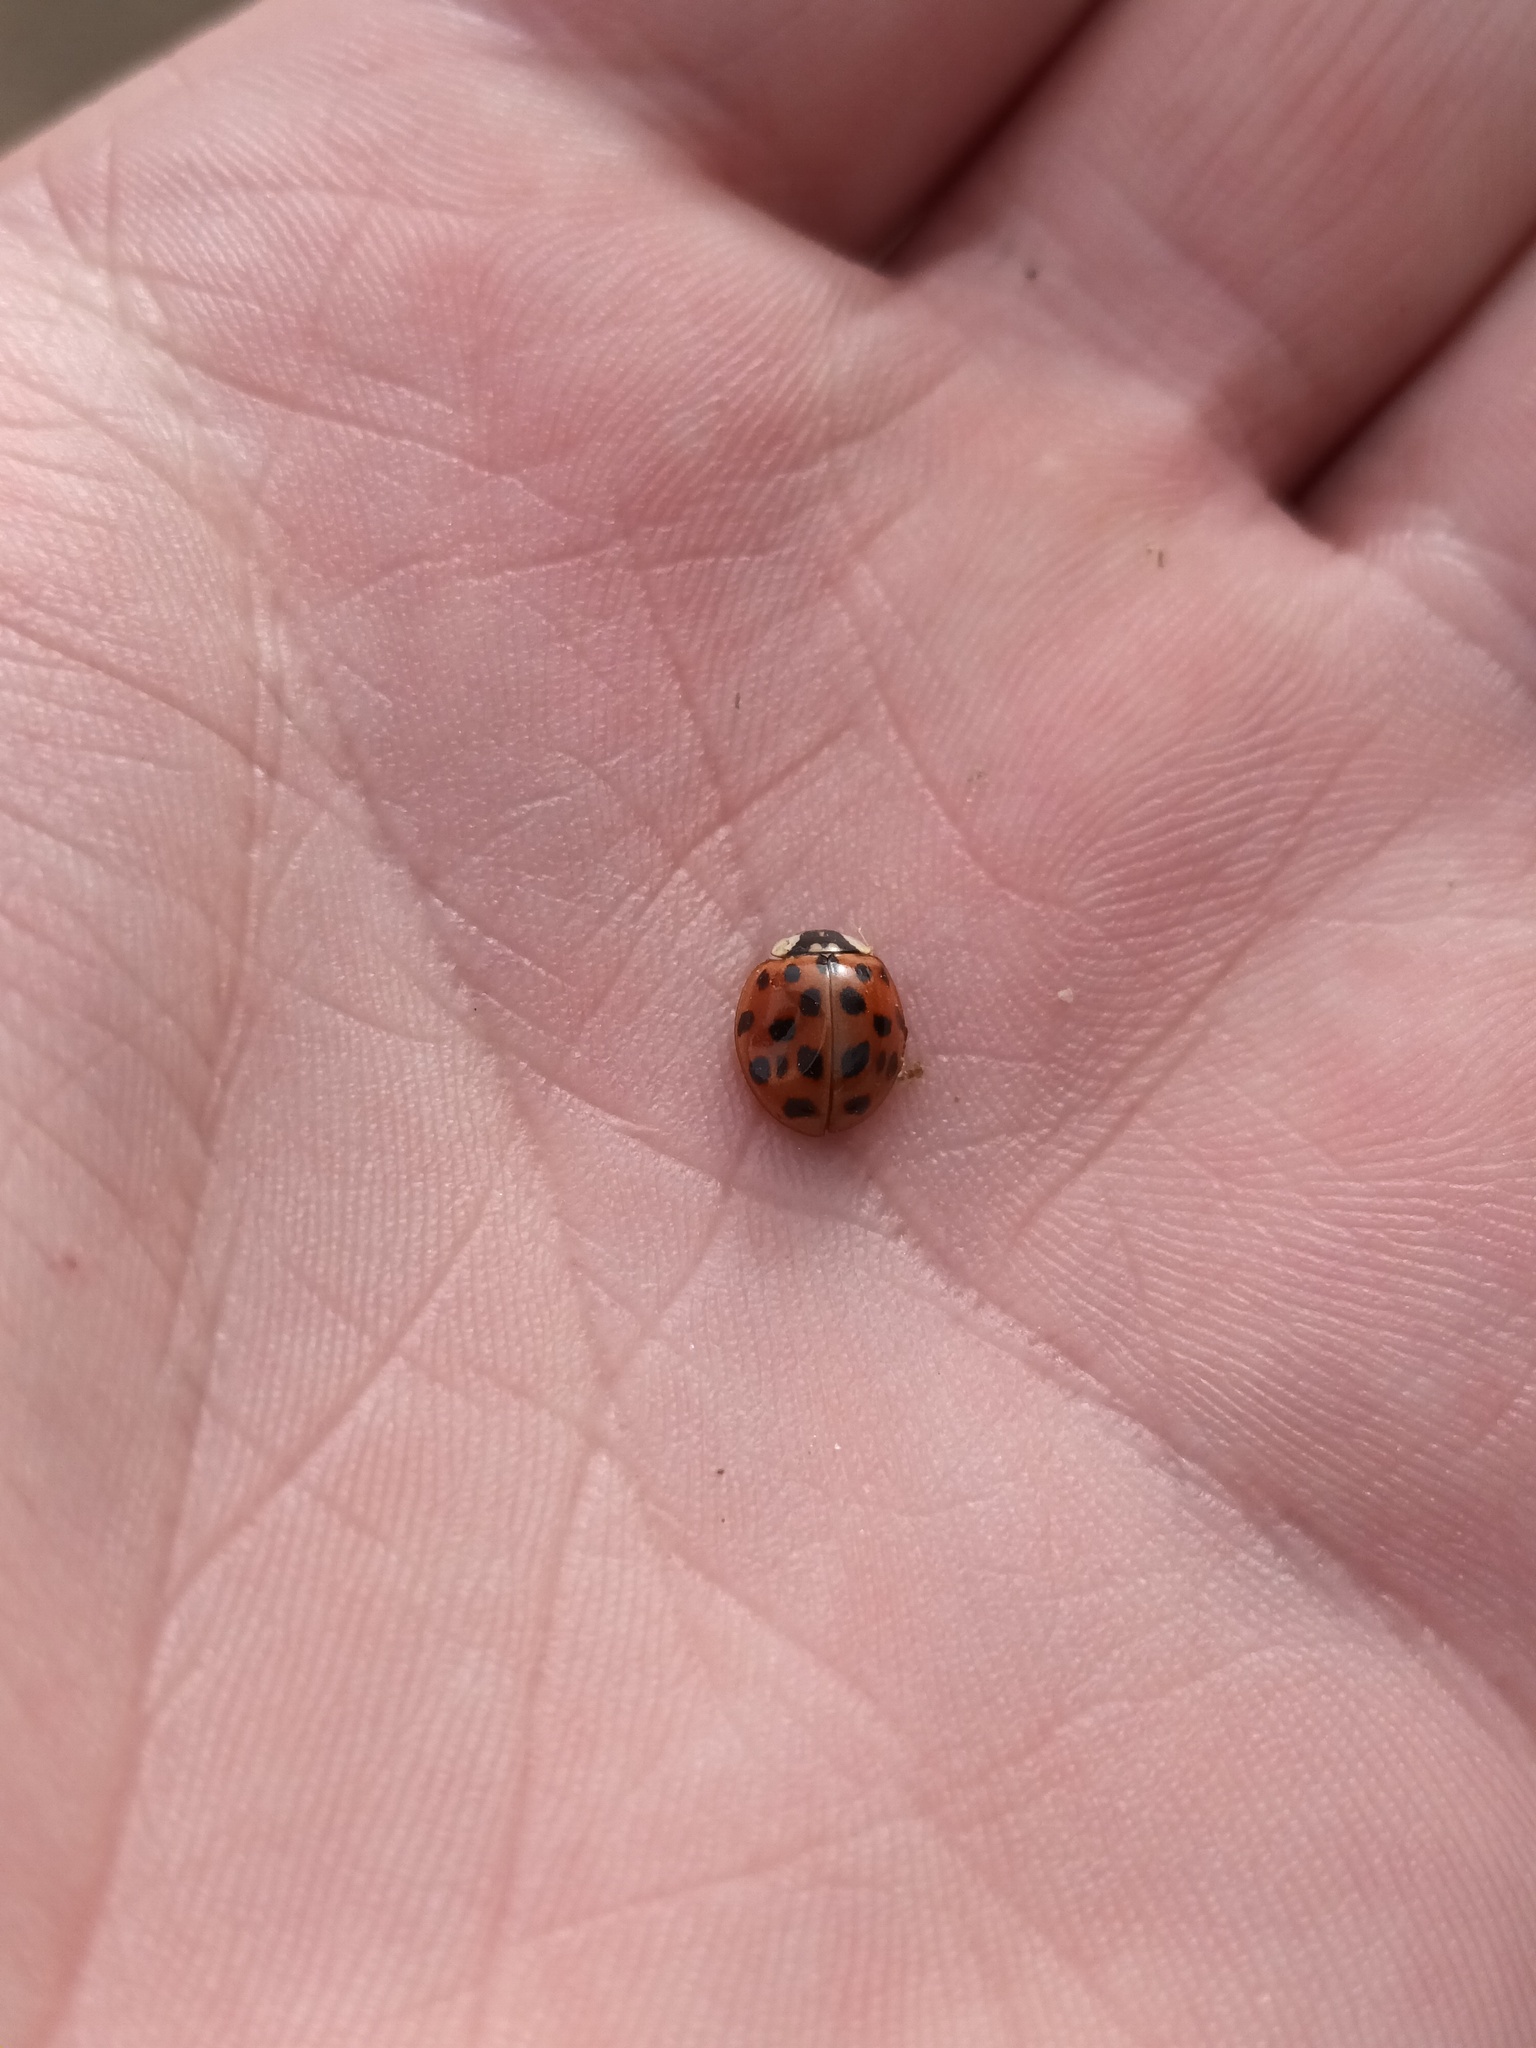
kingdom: Animalia
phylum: Arthropoda
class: Insecta
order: Coleoptera
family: Coccinellidae
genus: Harmonia
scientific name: Harmonia axyridis
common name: Harlequin ladybird
